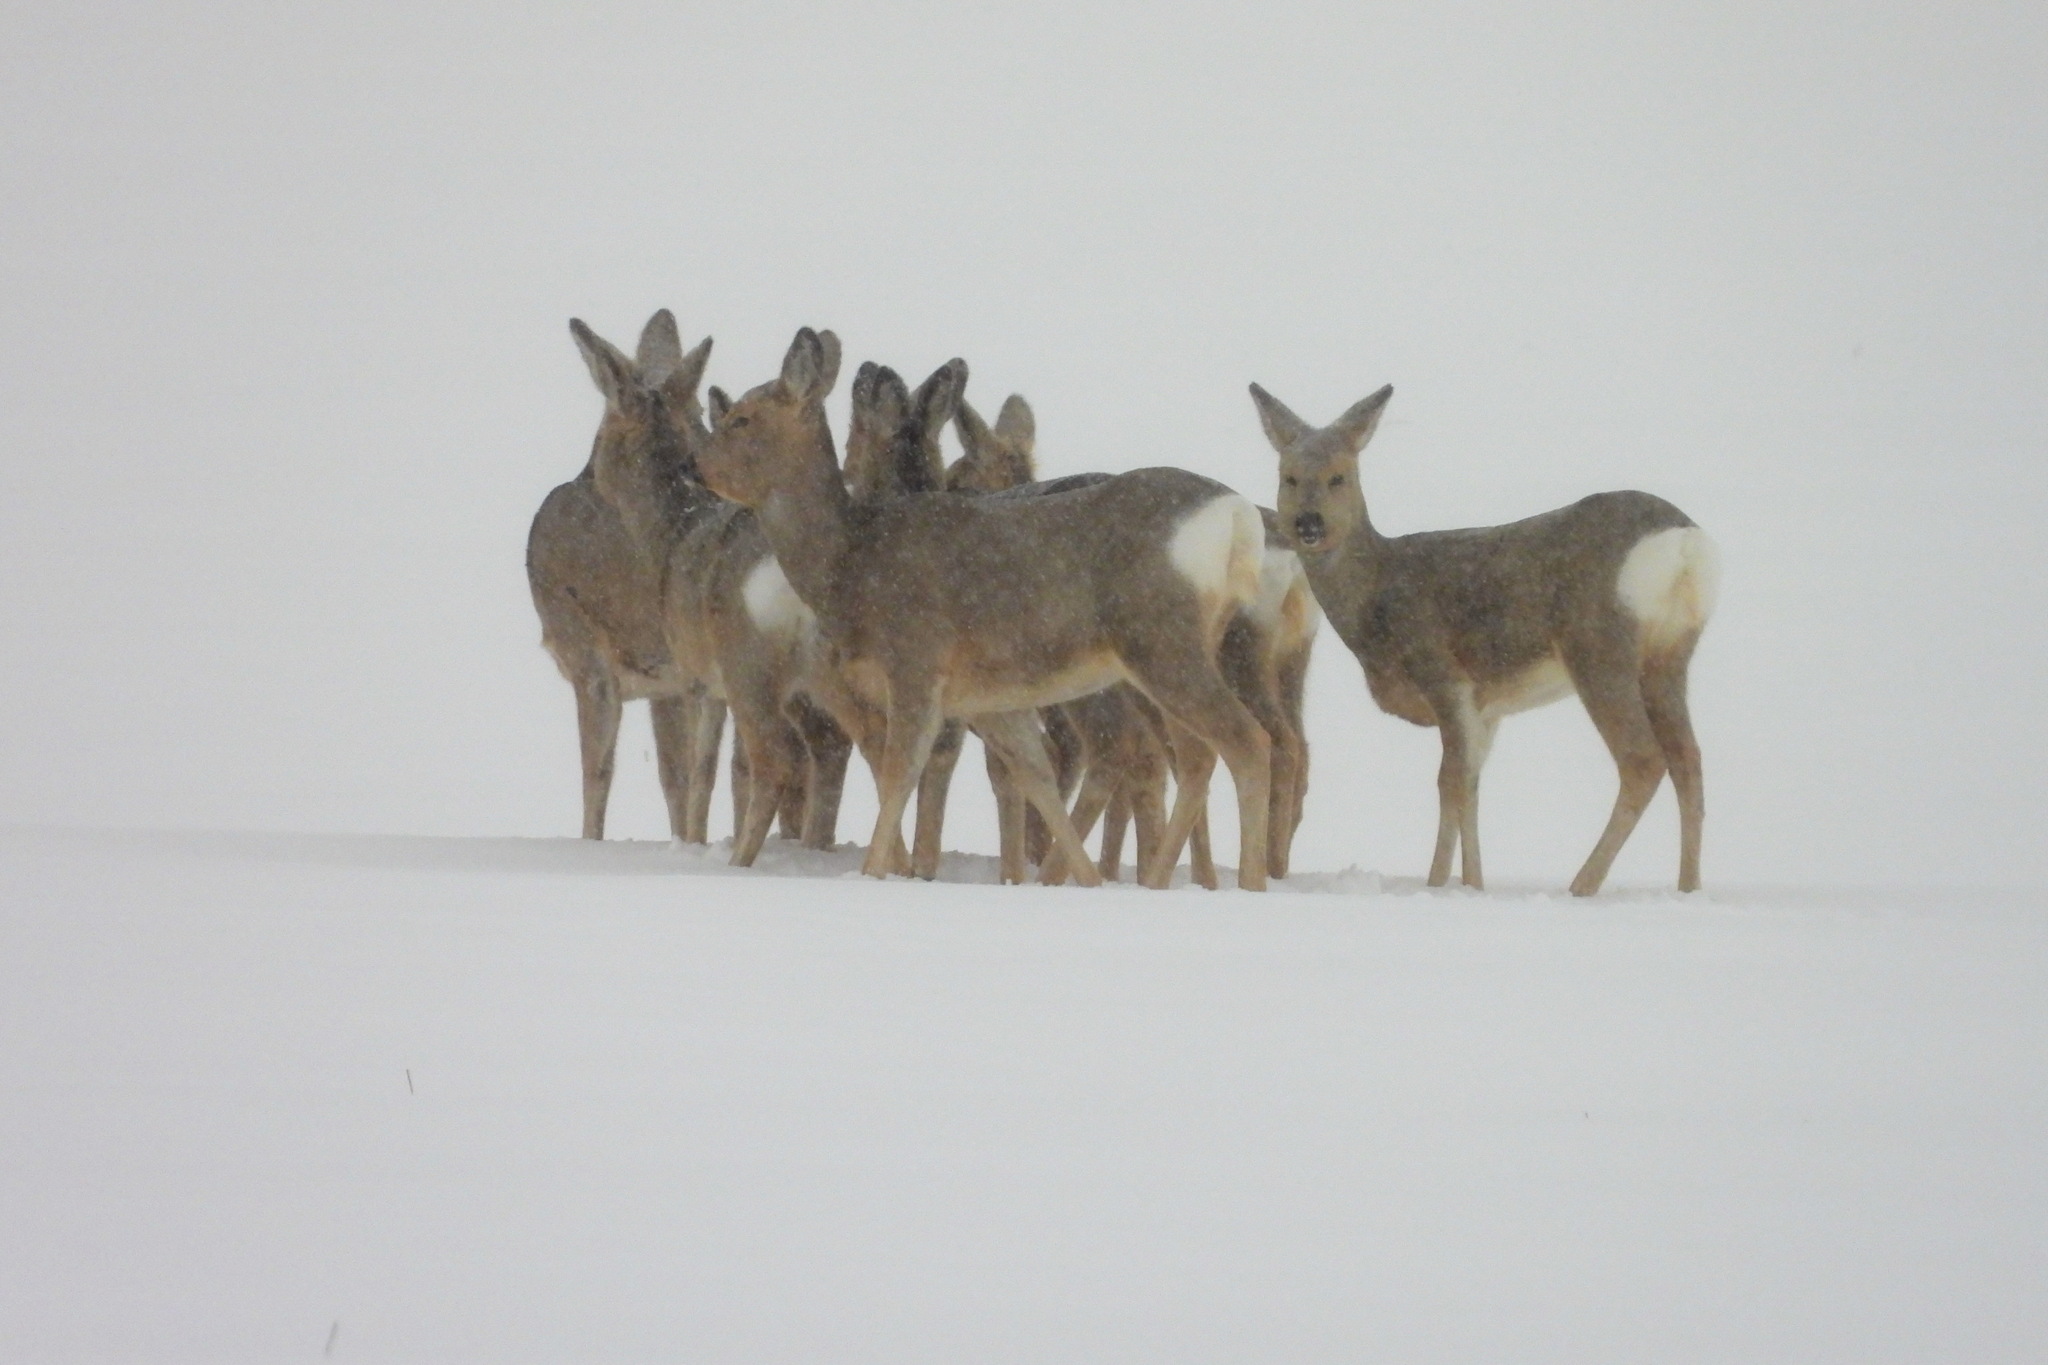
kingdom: Animalia
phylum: Chordata
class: Mammalia
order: Artiodactyla
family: Cervidae
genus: Capreolus
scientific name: Capreolus pygargus
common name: Siberian roe
